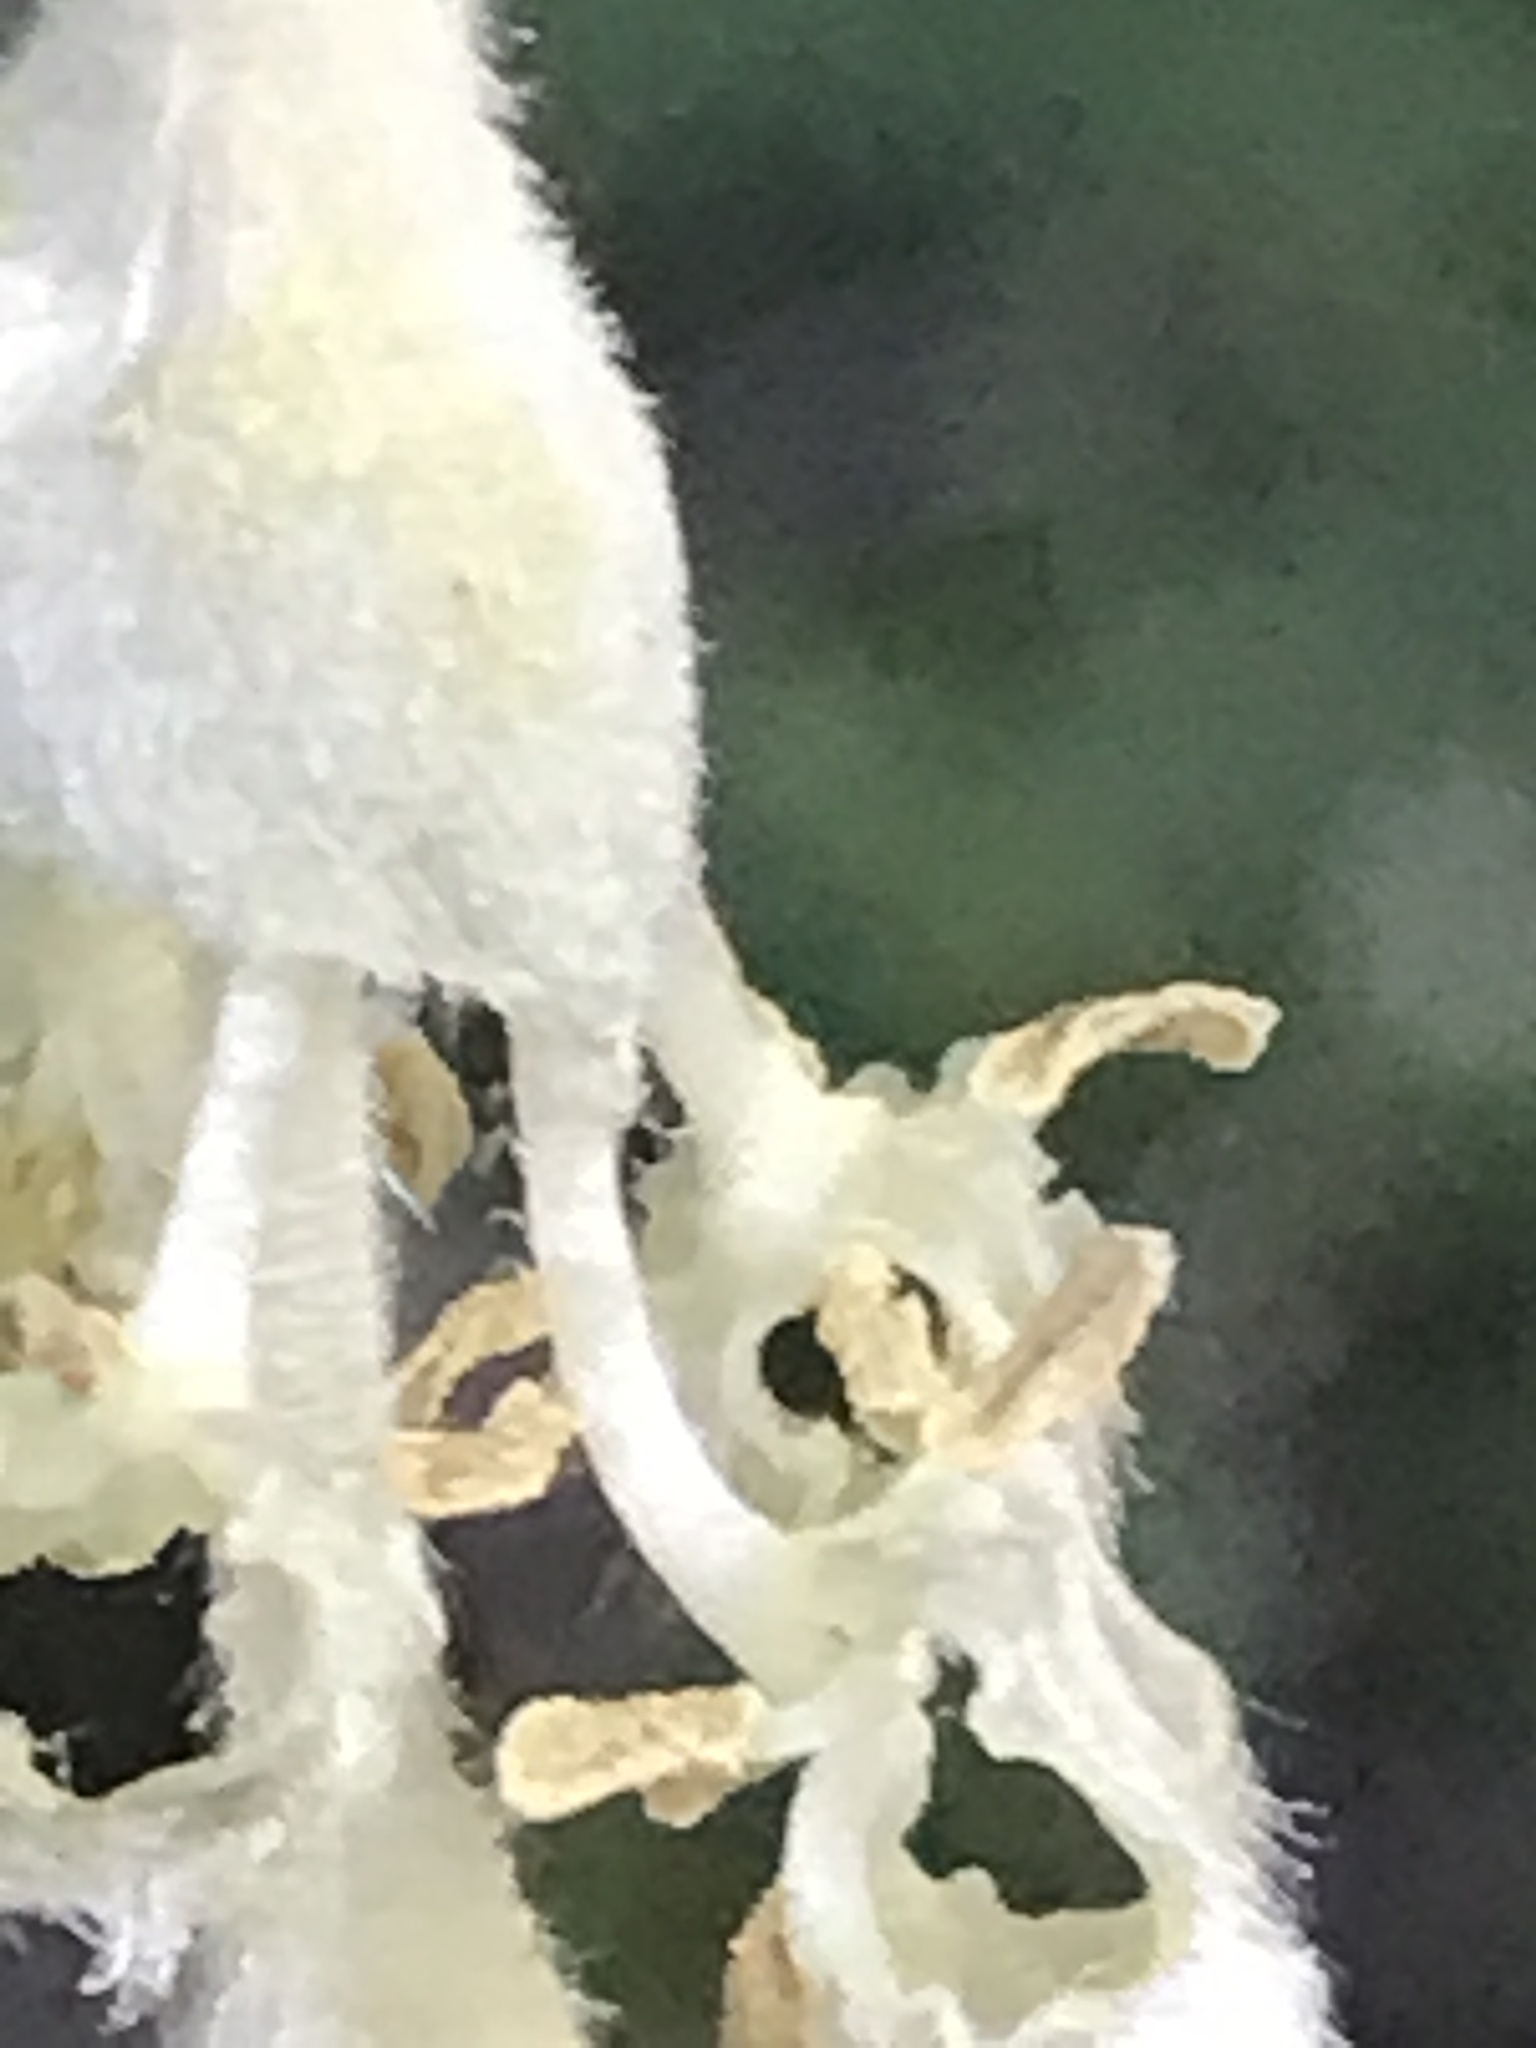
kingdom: Plantae
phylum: Tracheophyta
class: Magnoliopsida
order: Garryales
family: Garryaceae
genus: Garrya
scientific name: Garrya elliptica
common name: Silk-tassel
